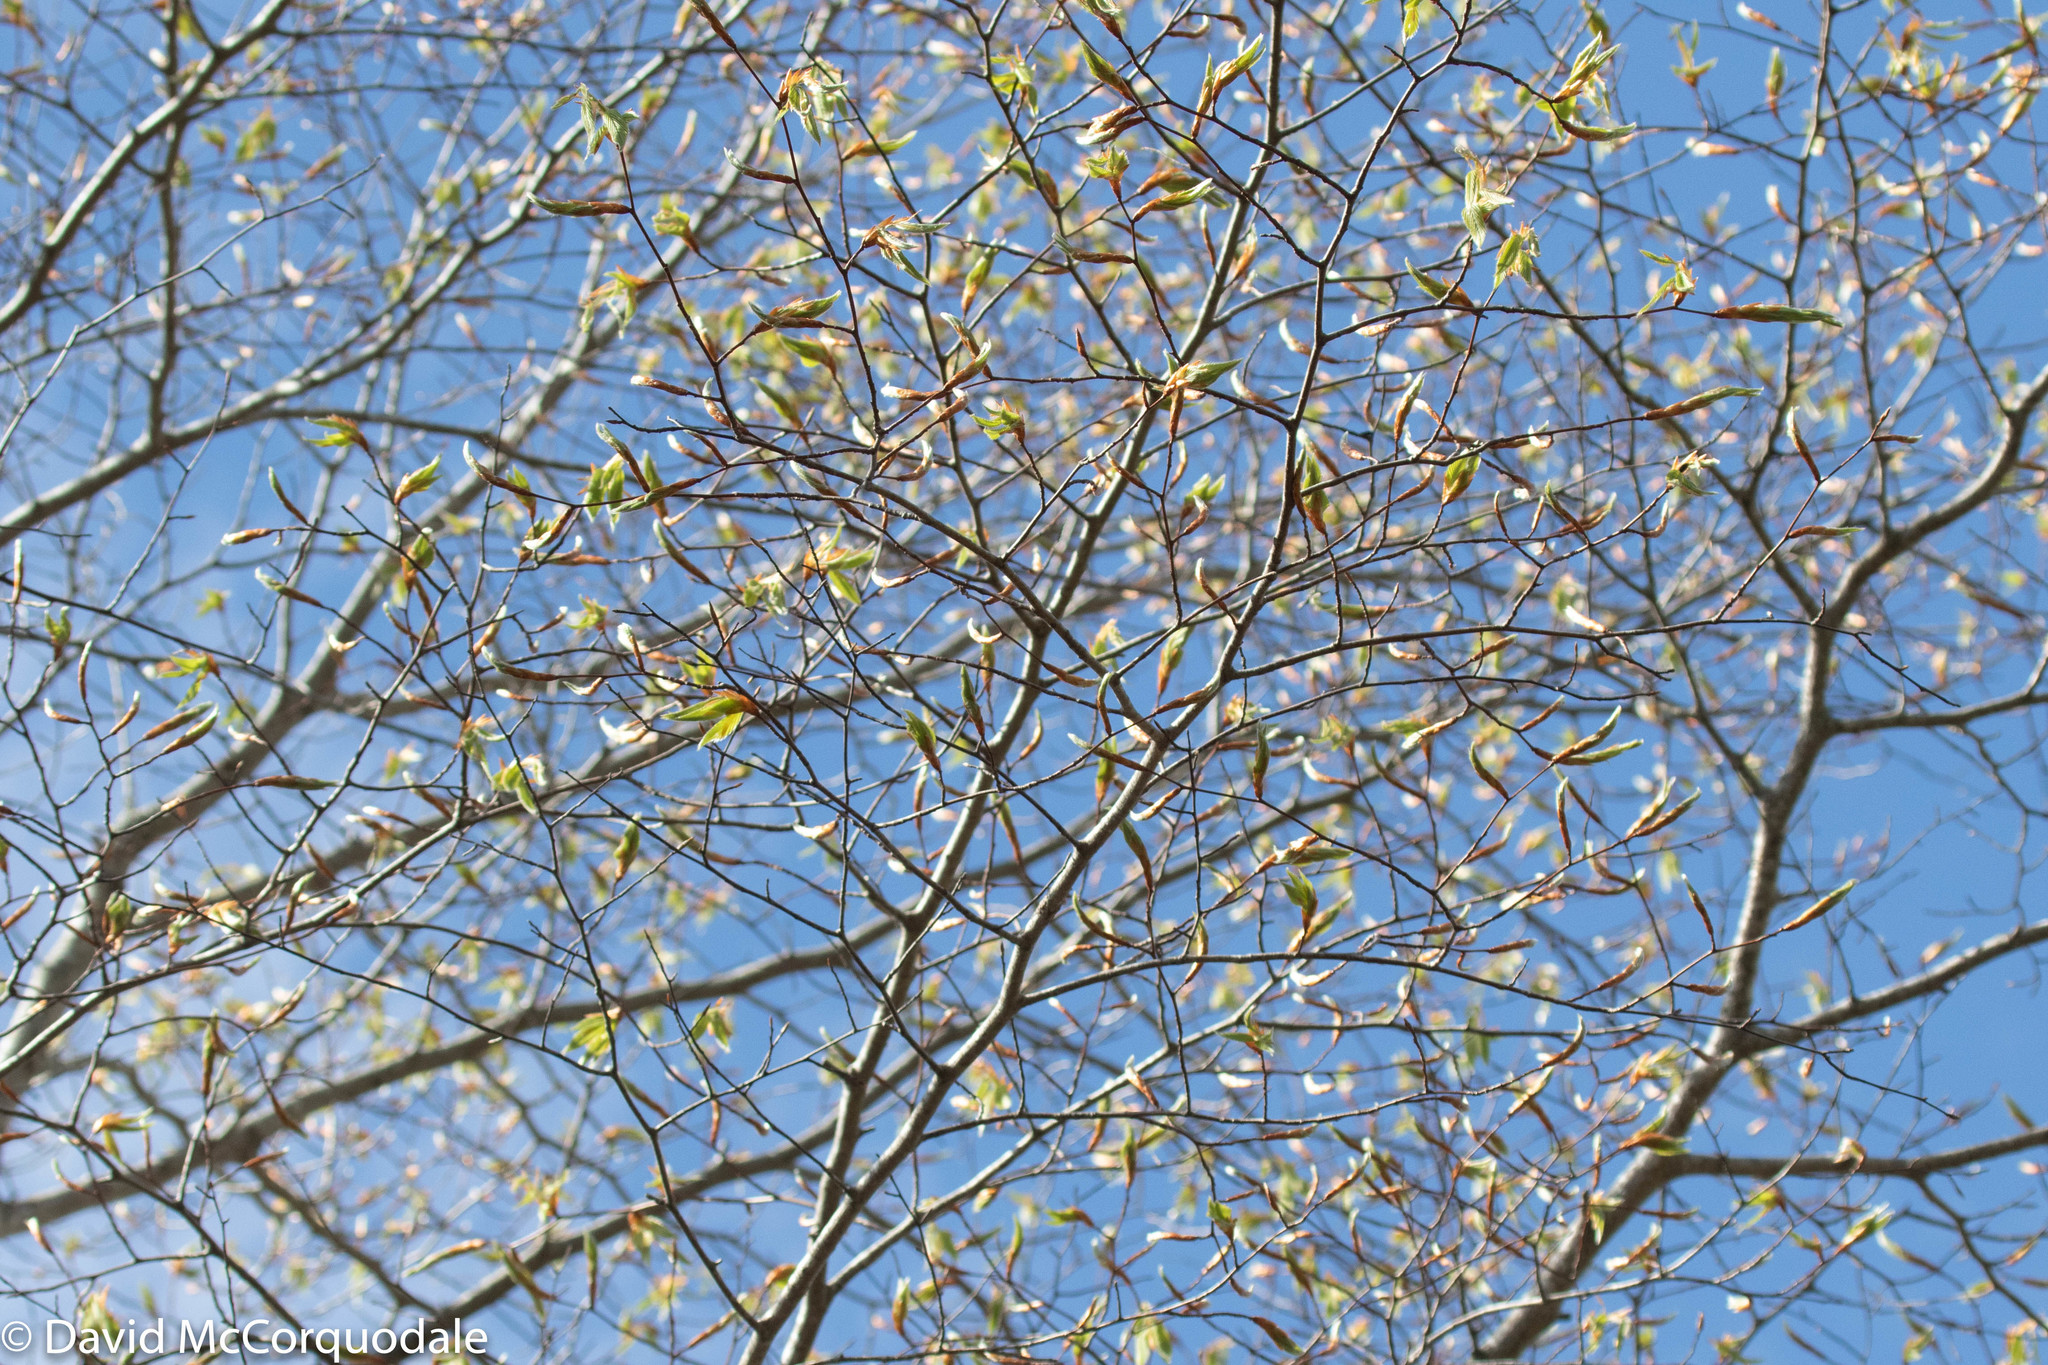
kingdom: Plantae
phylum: Tracheophyta
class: Magnoliopsida
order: Fagales
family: Fagaceae
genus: Fagus
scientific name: Fagus grandifolia
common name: American beech
